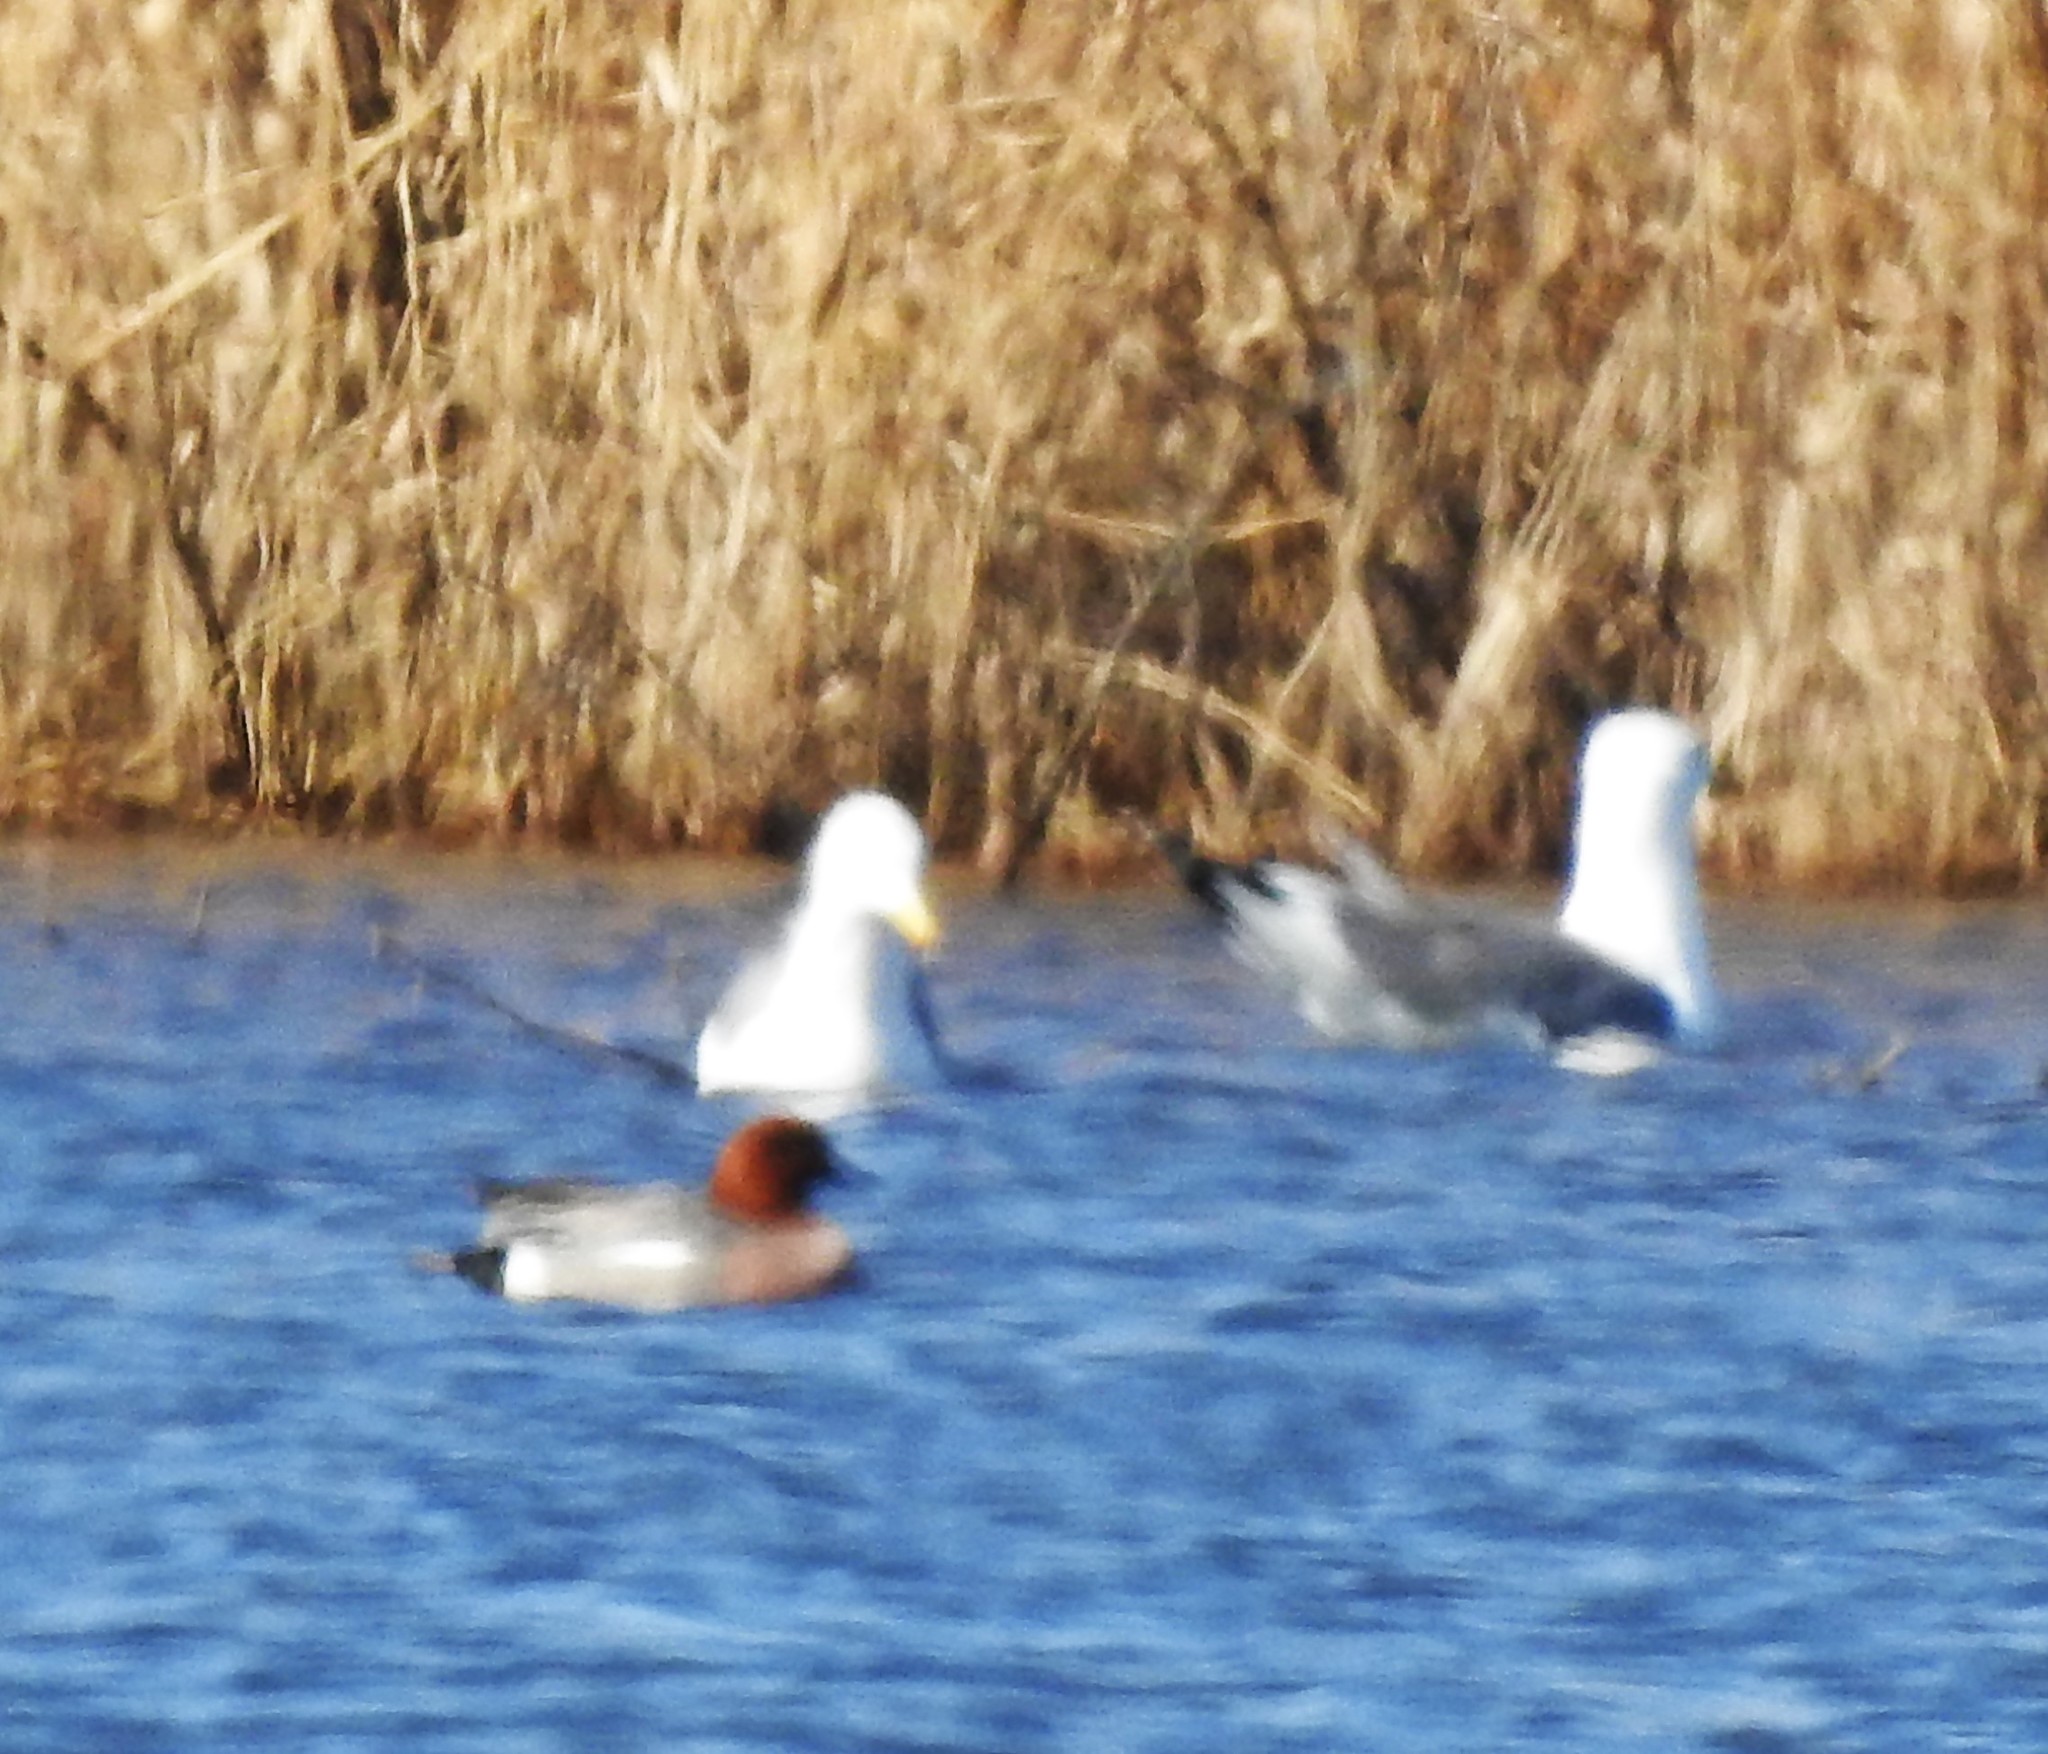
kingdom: Animalia
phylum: Chordata
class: Aves
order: Anseriformes
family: Anatidae
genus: Mareca
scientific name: Mareca penelope
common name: Eurasian wigeon
